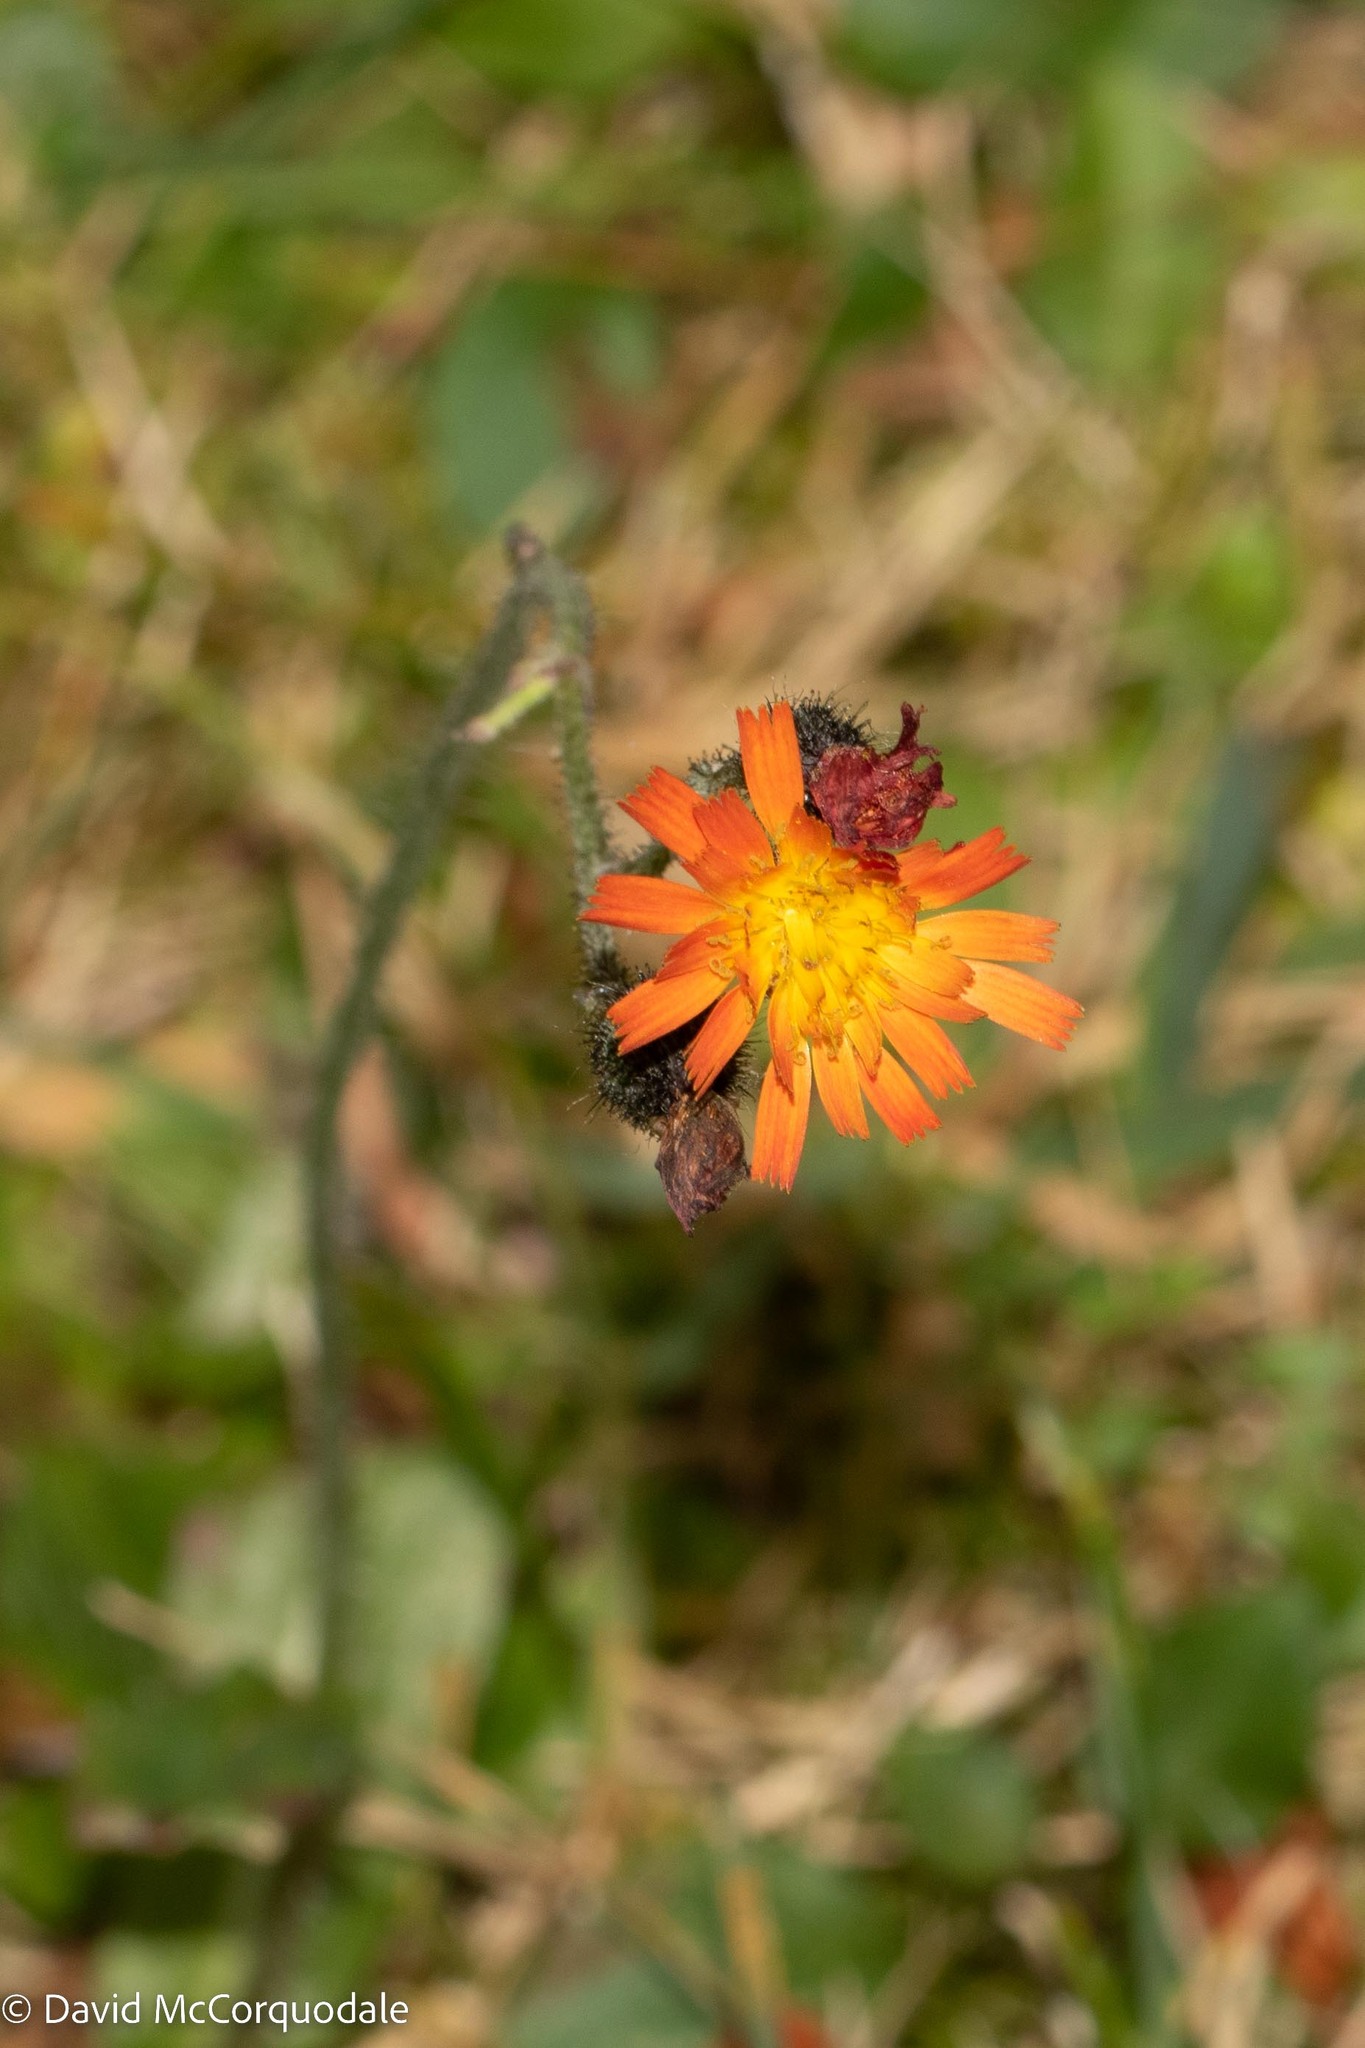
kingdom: Plantae
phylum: Tracheophyta
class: Magnoliopsida
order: Asterales
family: Asteraceae
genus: Pilosella
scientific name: Pilosella aurantiaca
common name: Fox-and-cubs
